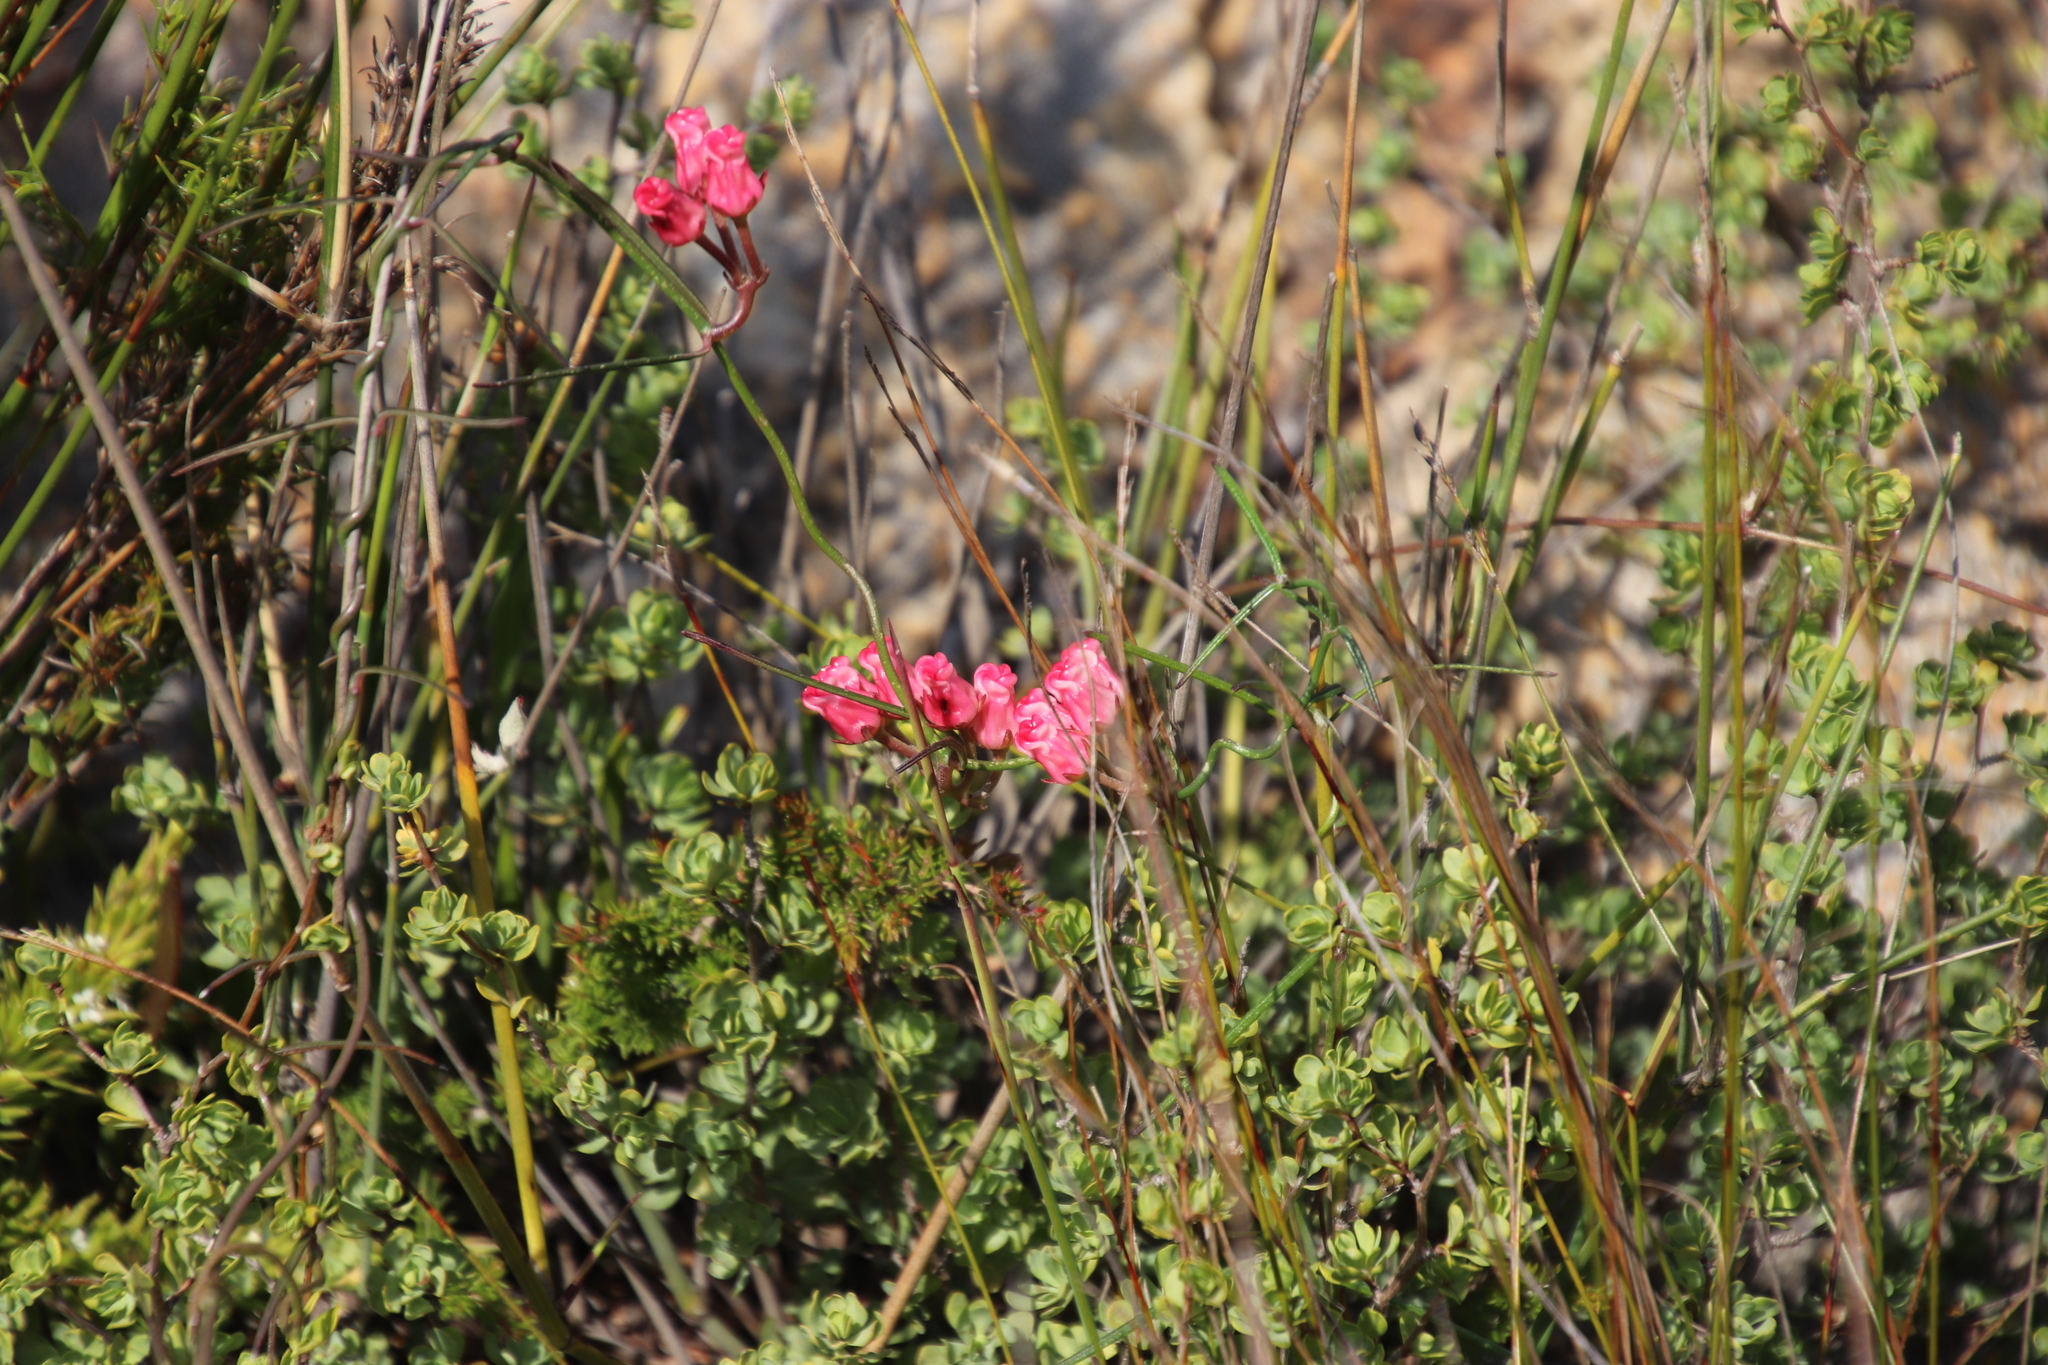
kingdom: Plantae
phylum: Tracheophyta
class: Magnoliopsida
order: Gentianales
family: Apocynaceae
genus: Microloma
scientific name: Microloma tenuifolium
